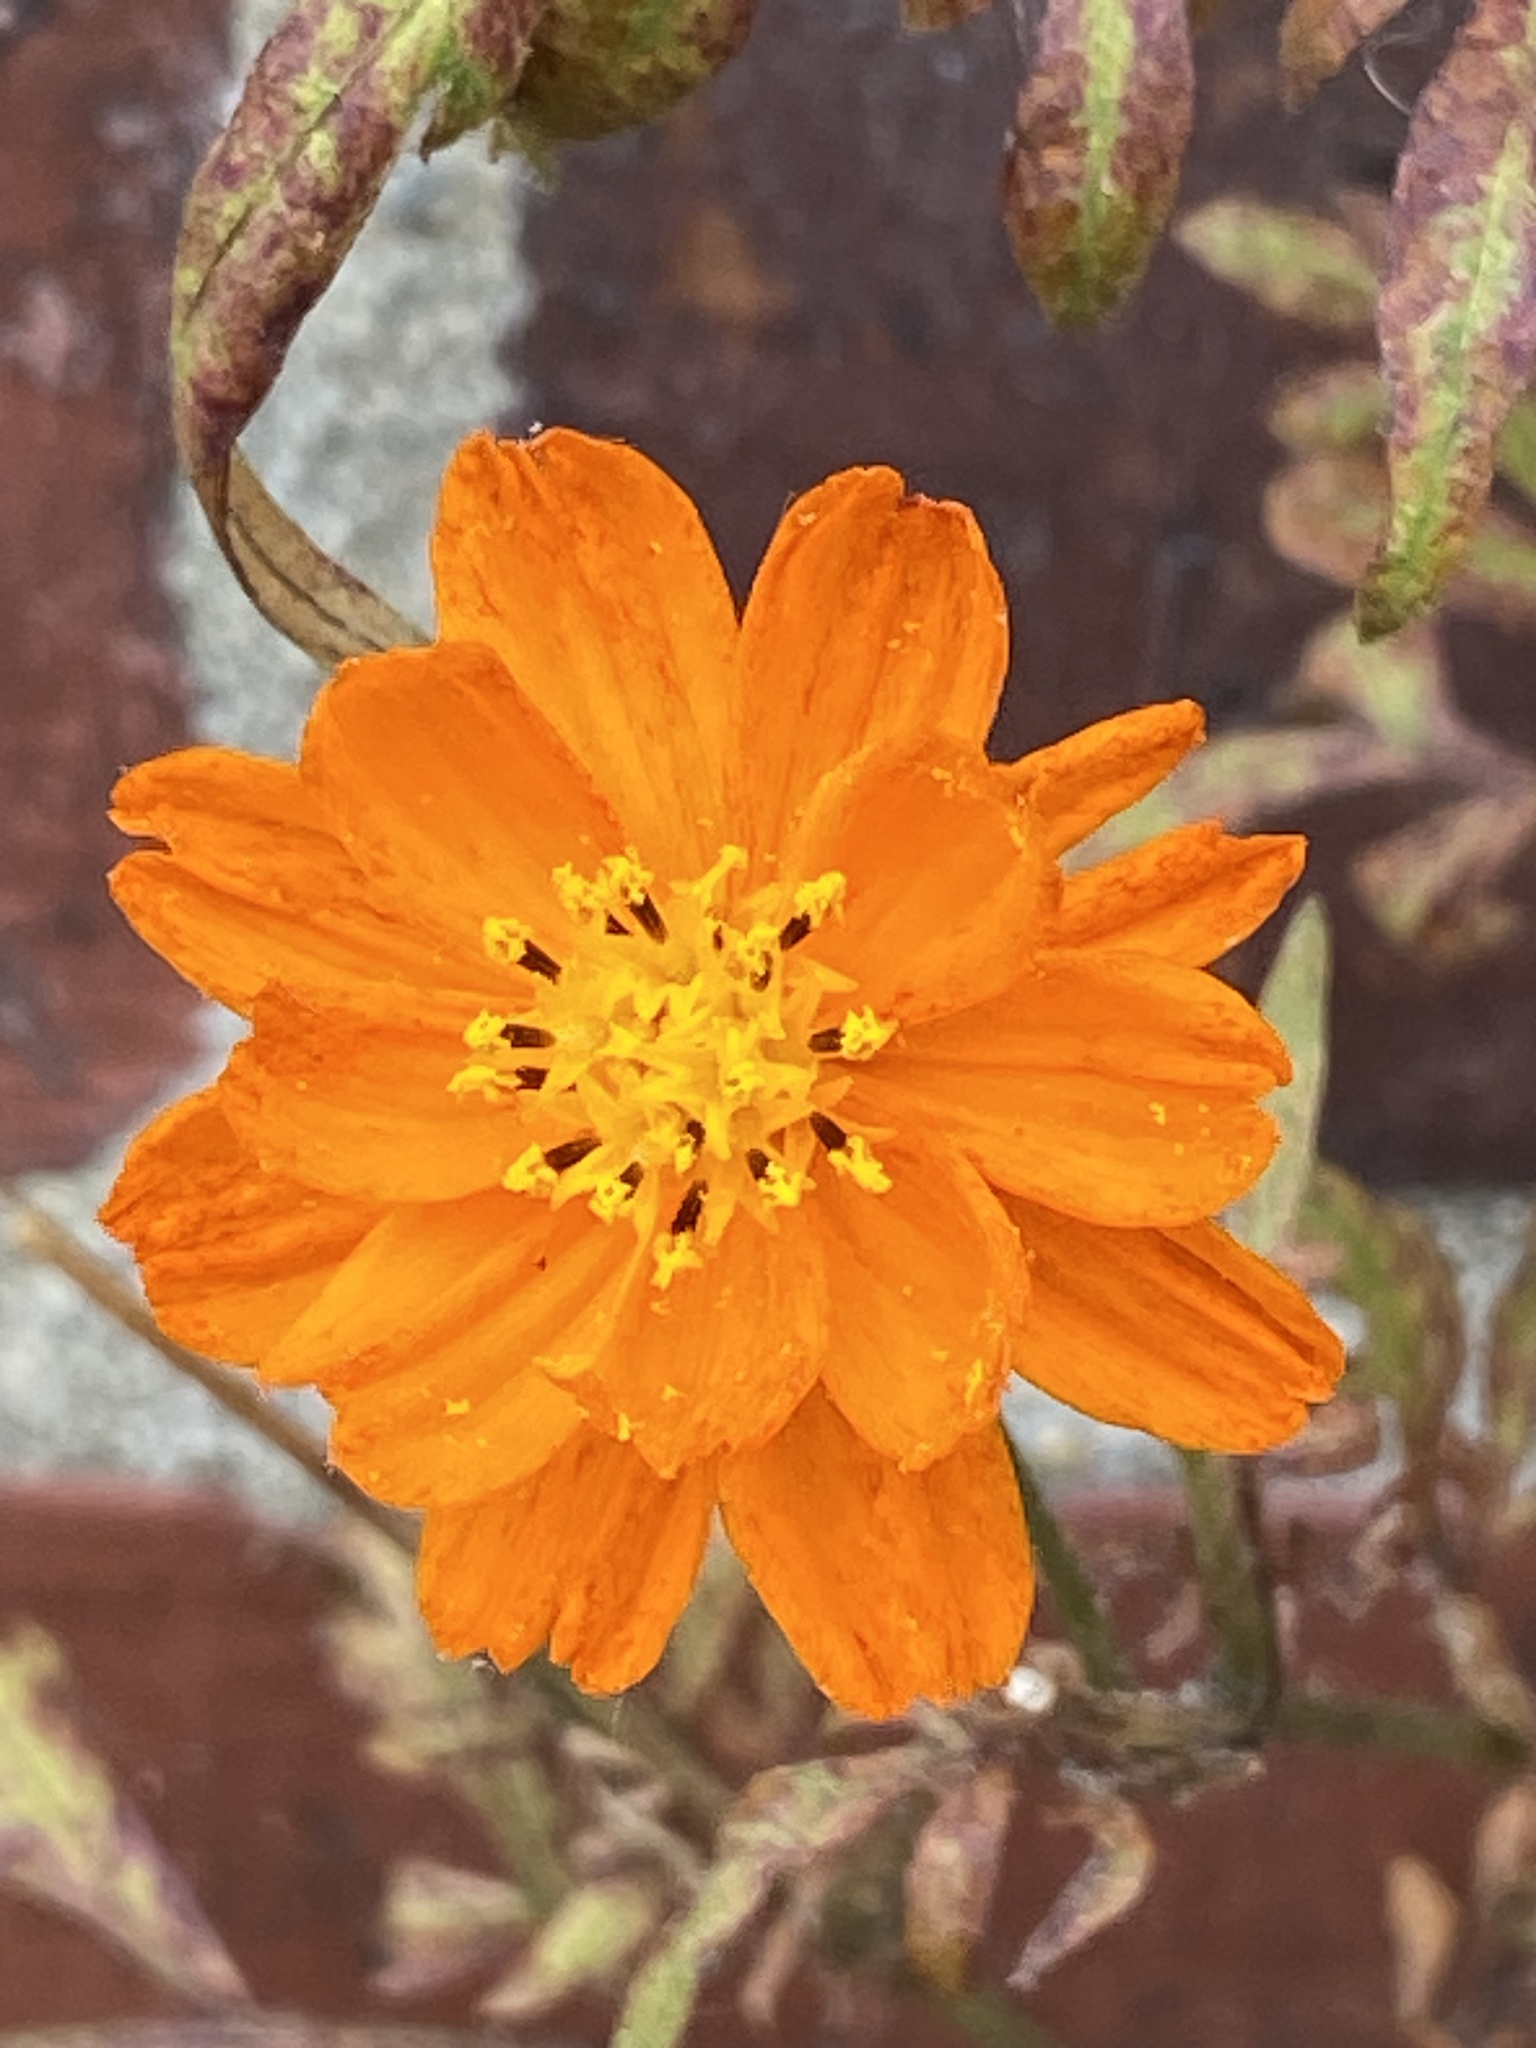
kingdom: Plantae
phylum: Tracheophyta
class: Magnoliopsida
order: Asterales
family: Asteraceae
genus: Cosmos
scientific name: Cosmos sulphureus
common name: Sulphur cosmos
